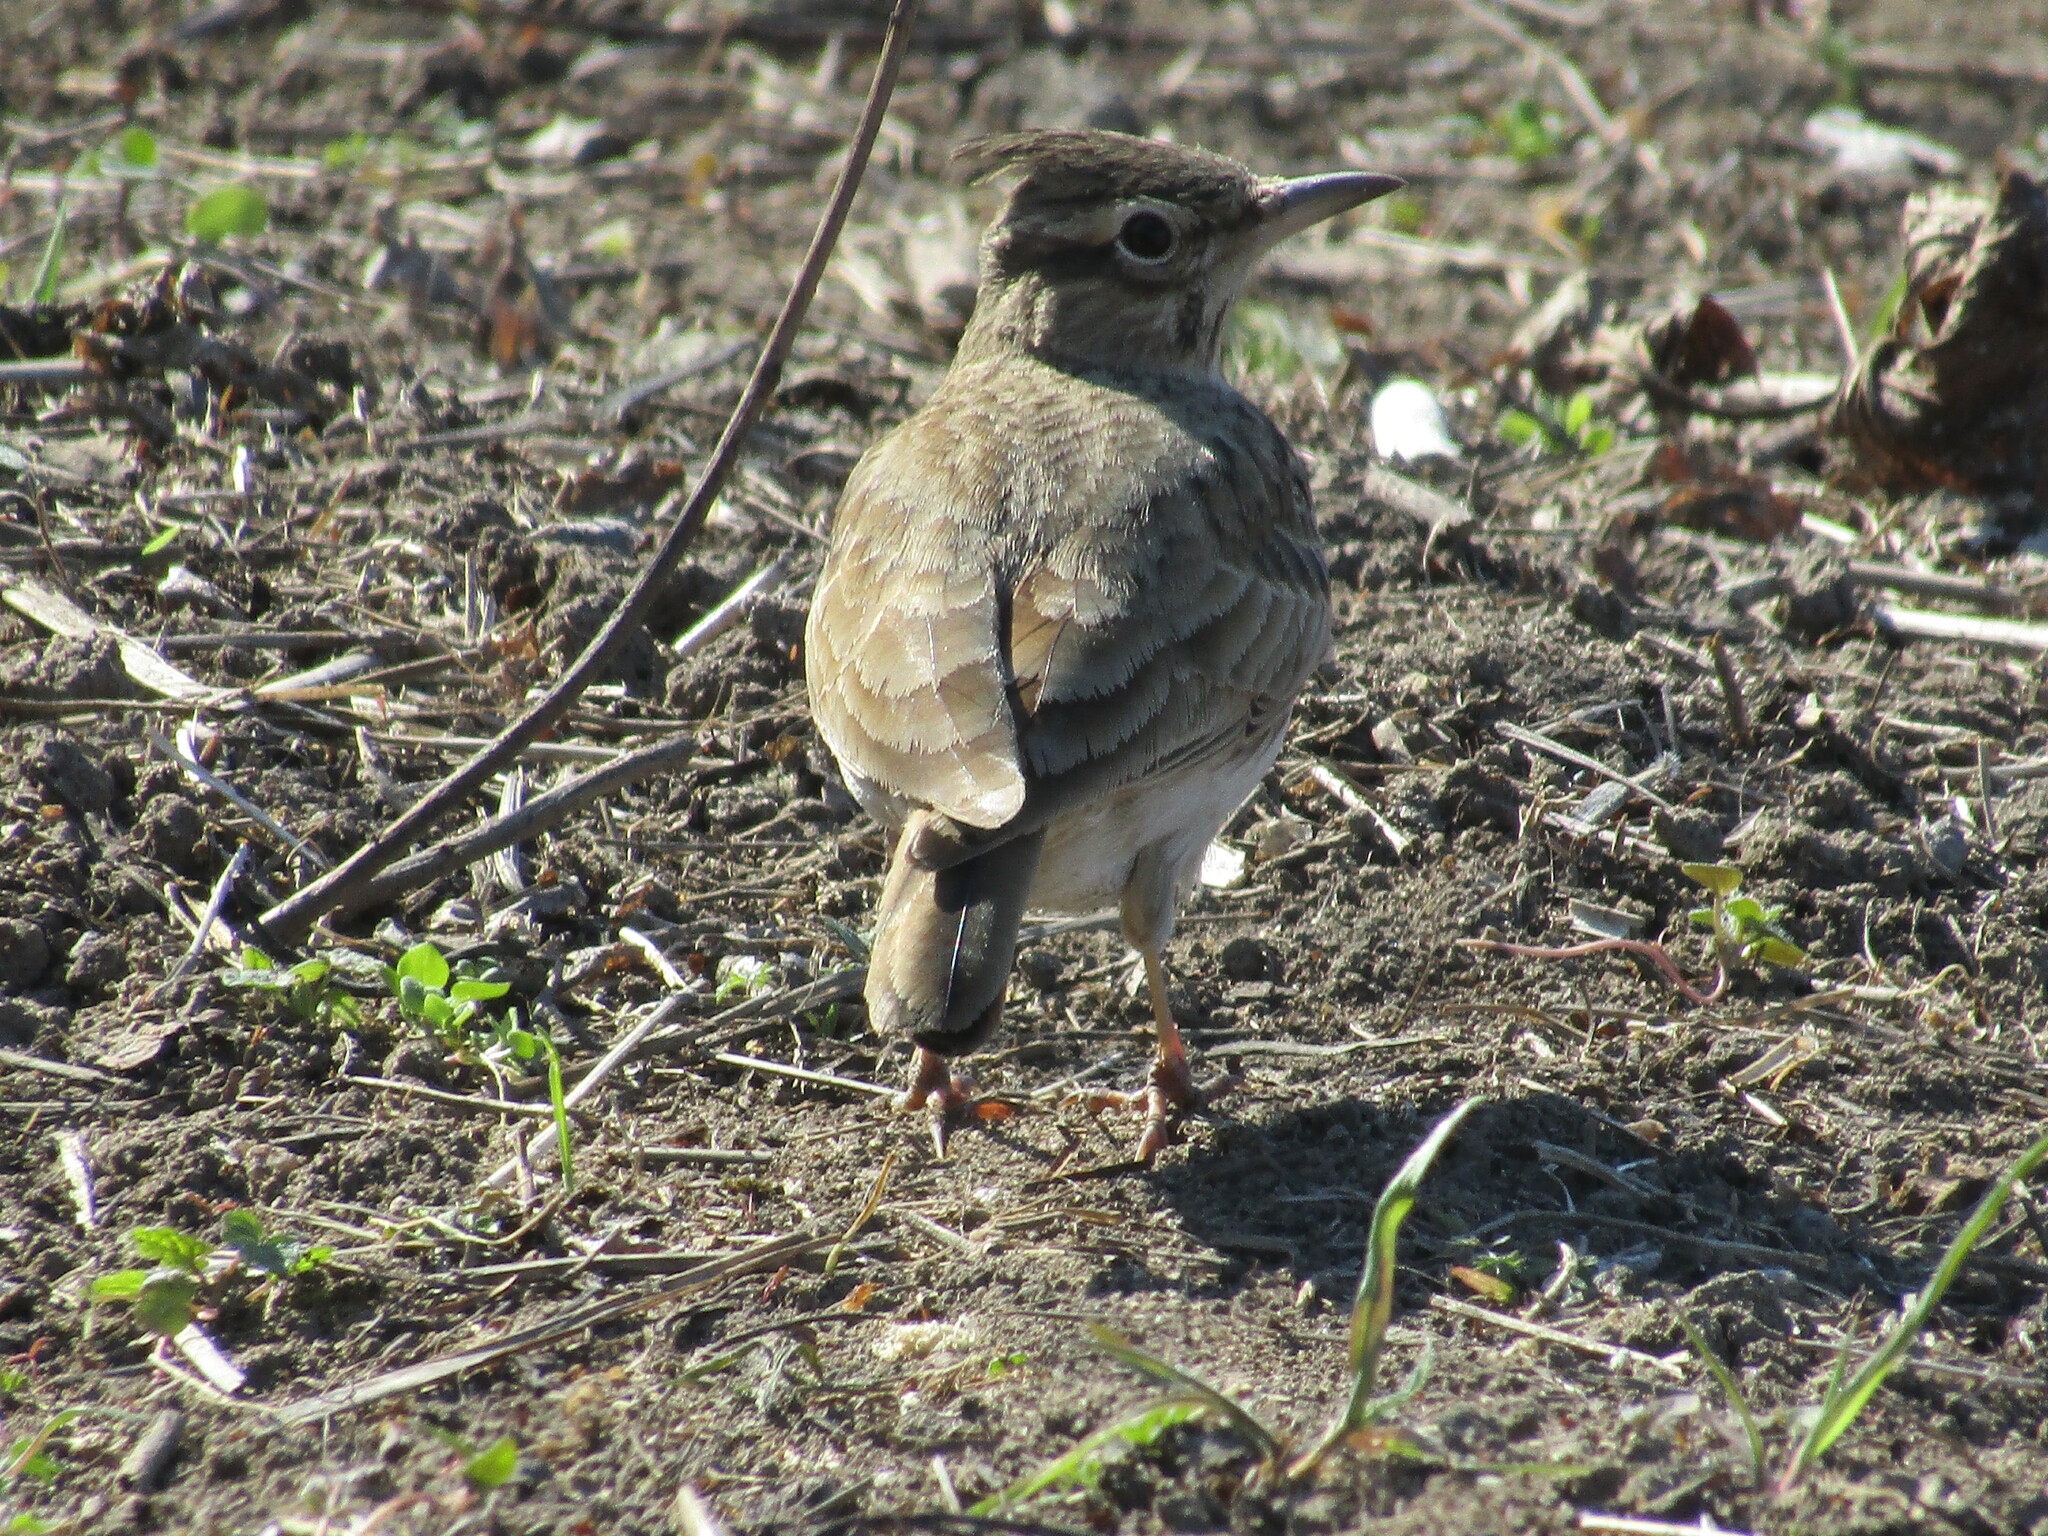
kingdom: Animalia
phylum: Chordata
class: Aves
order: Passeriformes
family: Alaudidae
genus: Galerida
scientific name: Galerida cristata
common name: Crested lark
